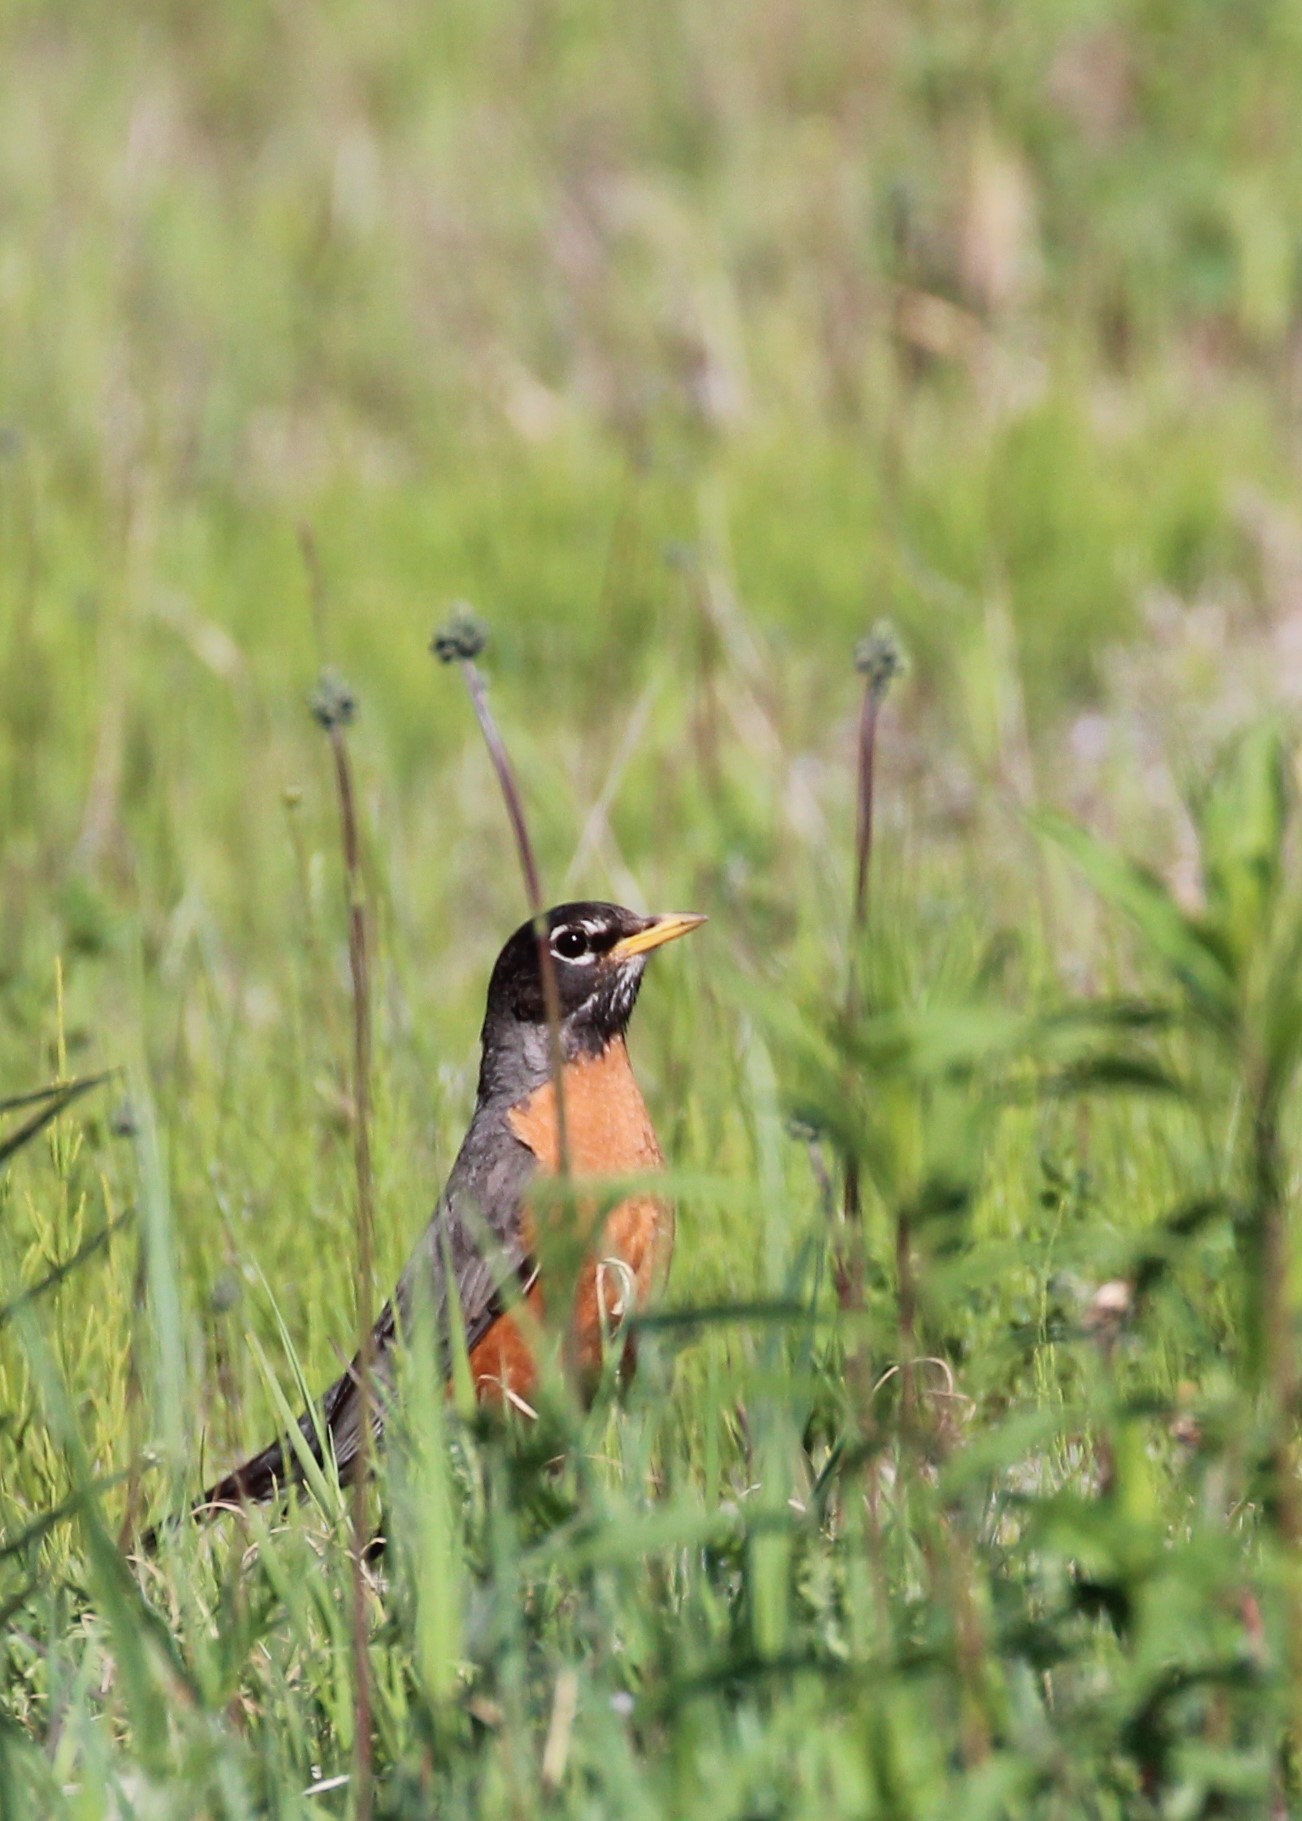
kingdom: Animalia
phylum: Chordata
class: Aves
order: Passeriformes
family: Turdidae
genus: Turdus
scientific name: Turdus migratorius
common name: American robin
